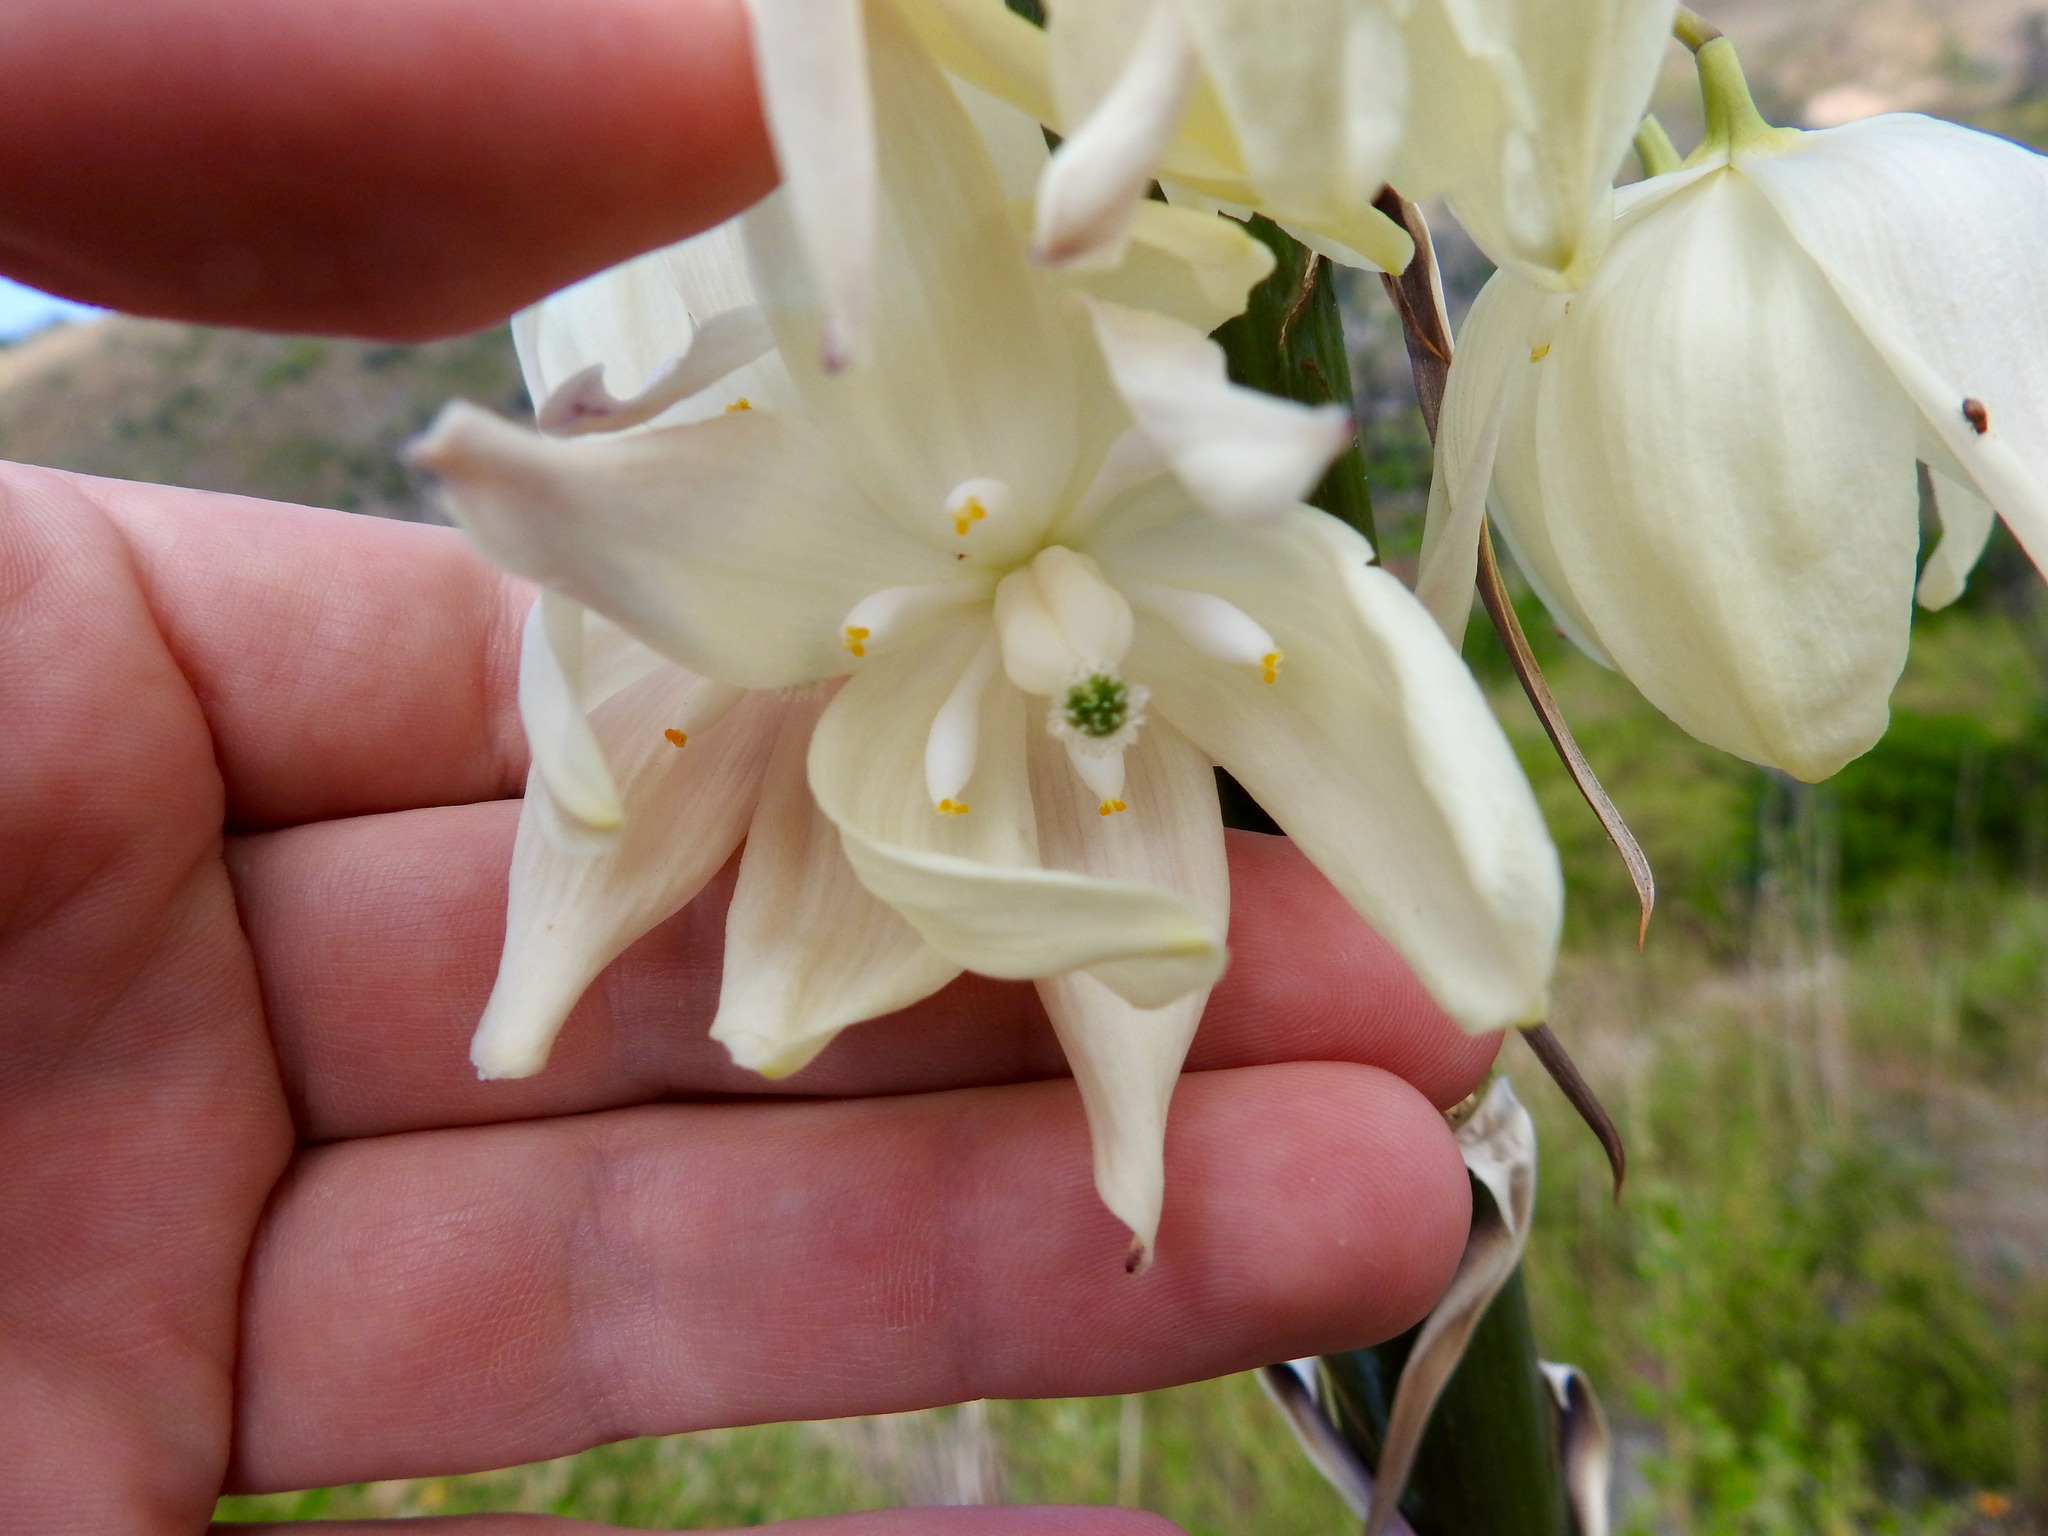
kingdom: Plantae
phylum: Tracheophyta
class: Liliopsida
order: Asparagales
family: Asparagaceae
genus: Hesperoyucca
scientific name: Hesperoyucca whipplei
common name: Our lord's-candle
